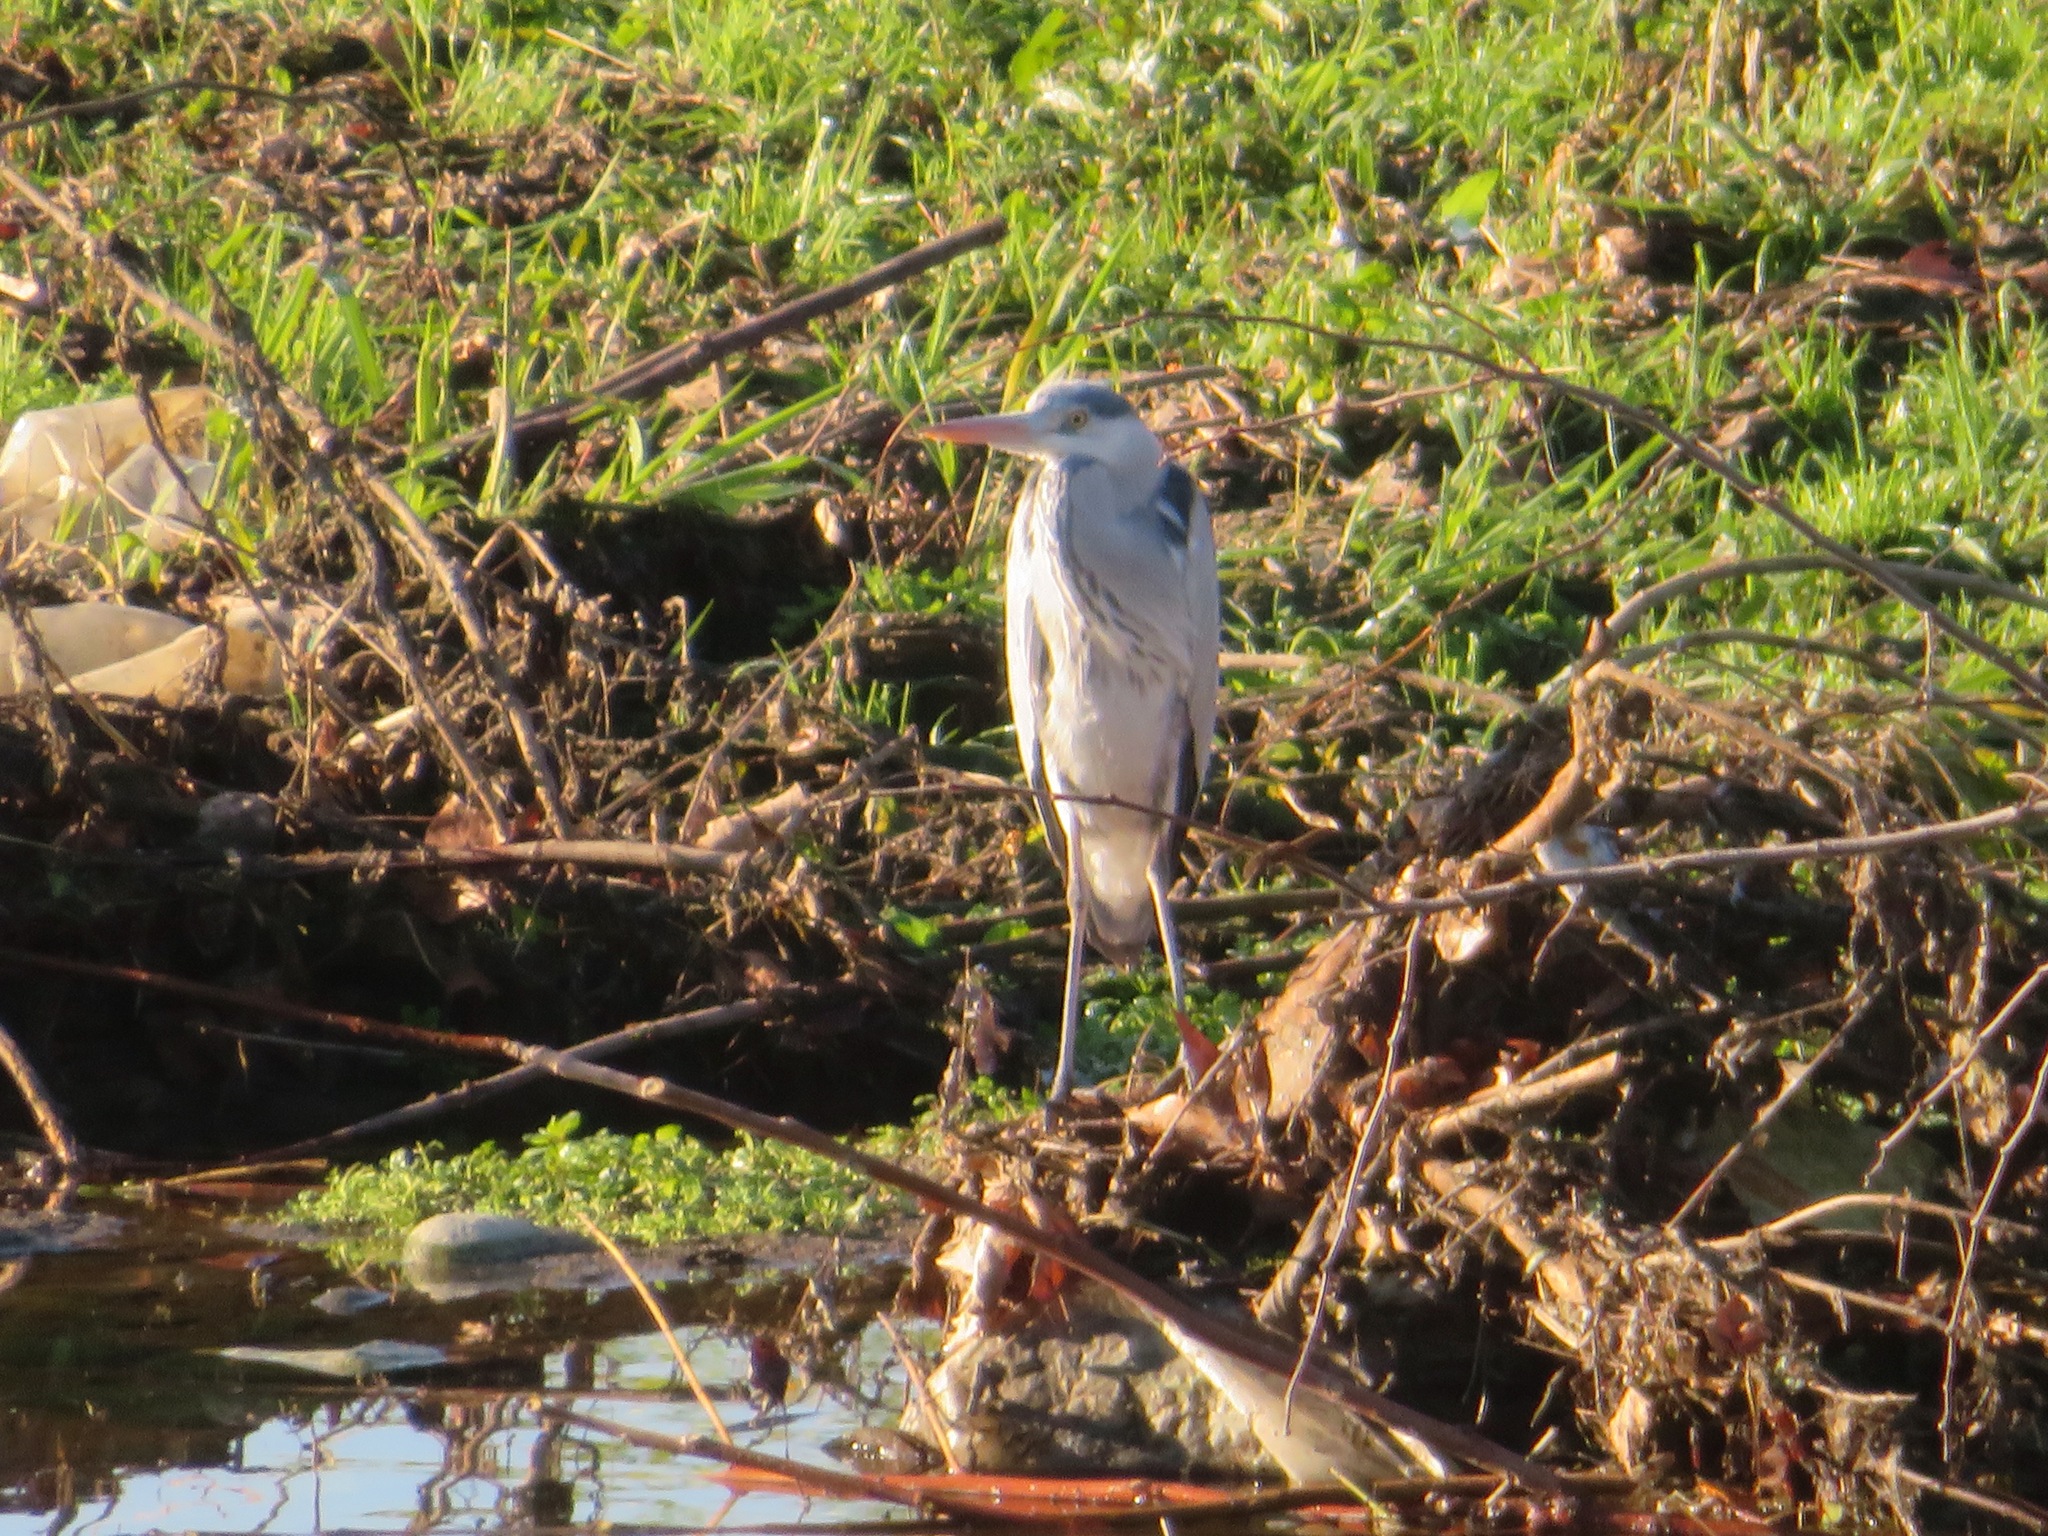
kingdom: Animalia
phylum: Chordata
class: Aves
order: Pelecaniformes
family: Ardeidae
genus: Ardea
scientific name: Ardea cinerea
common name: Grey heron
